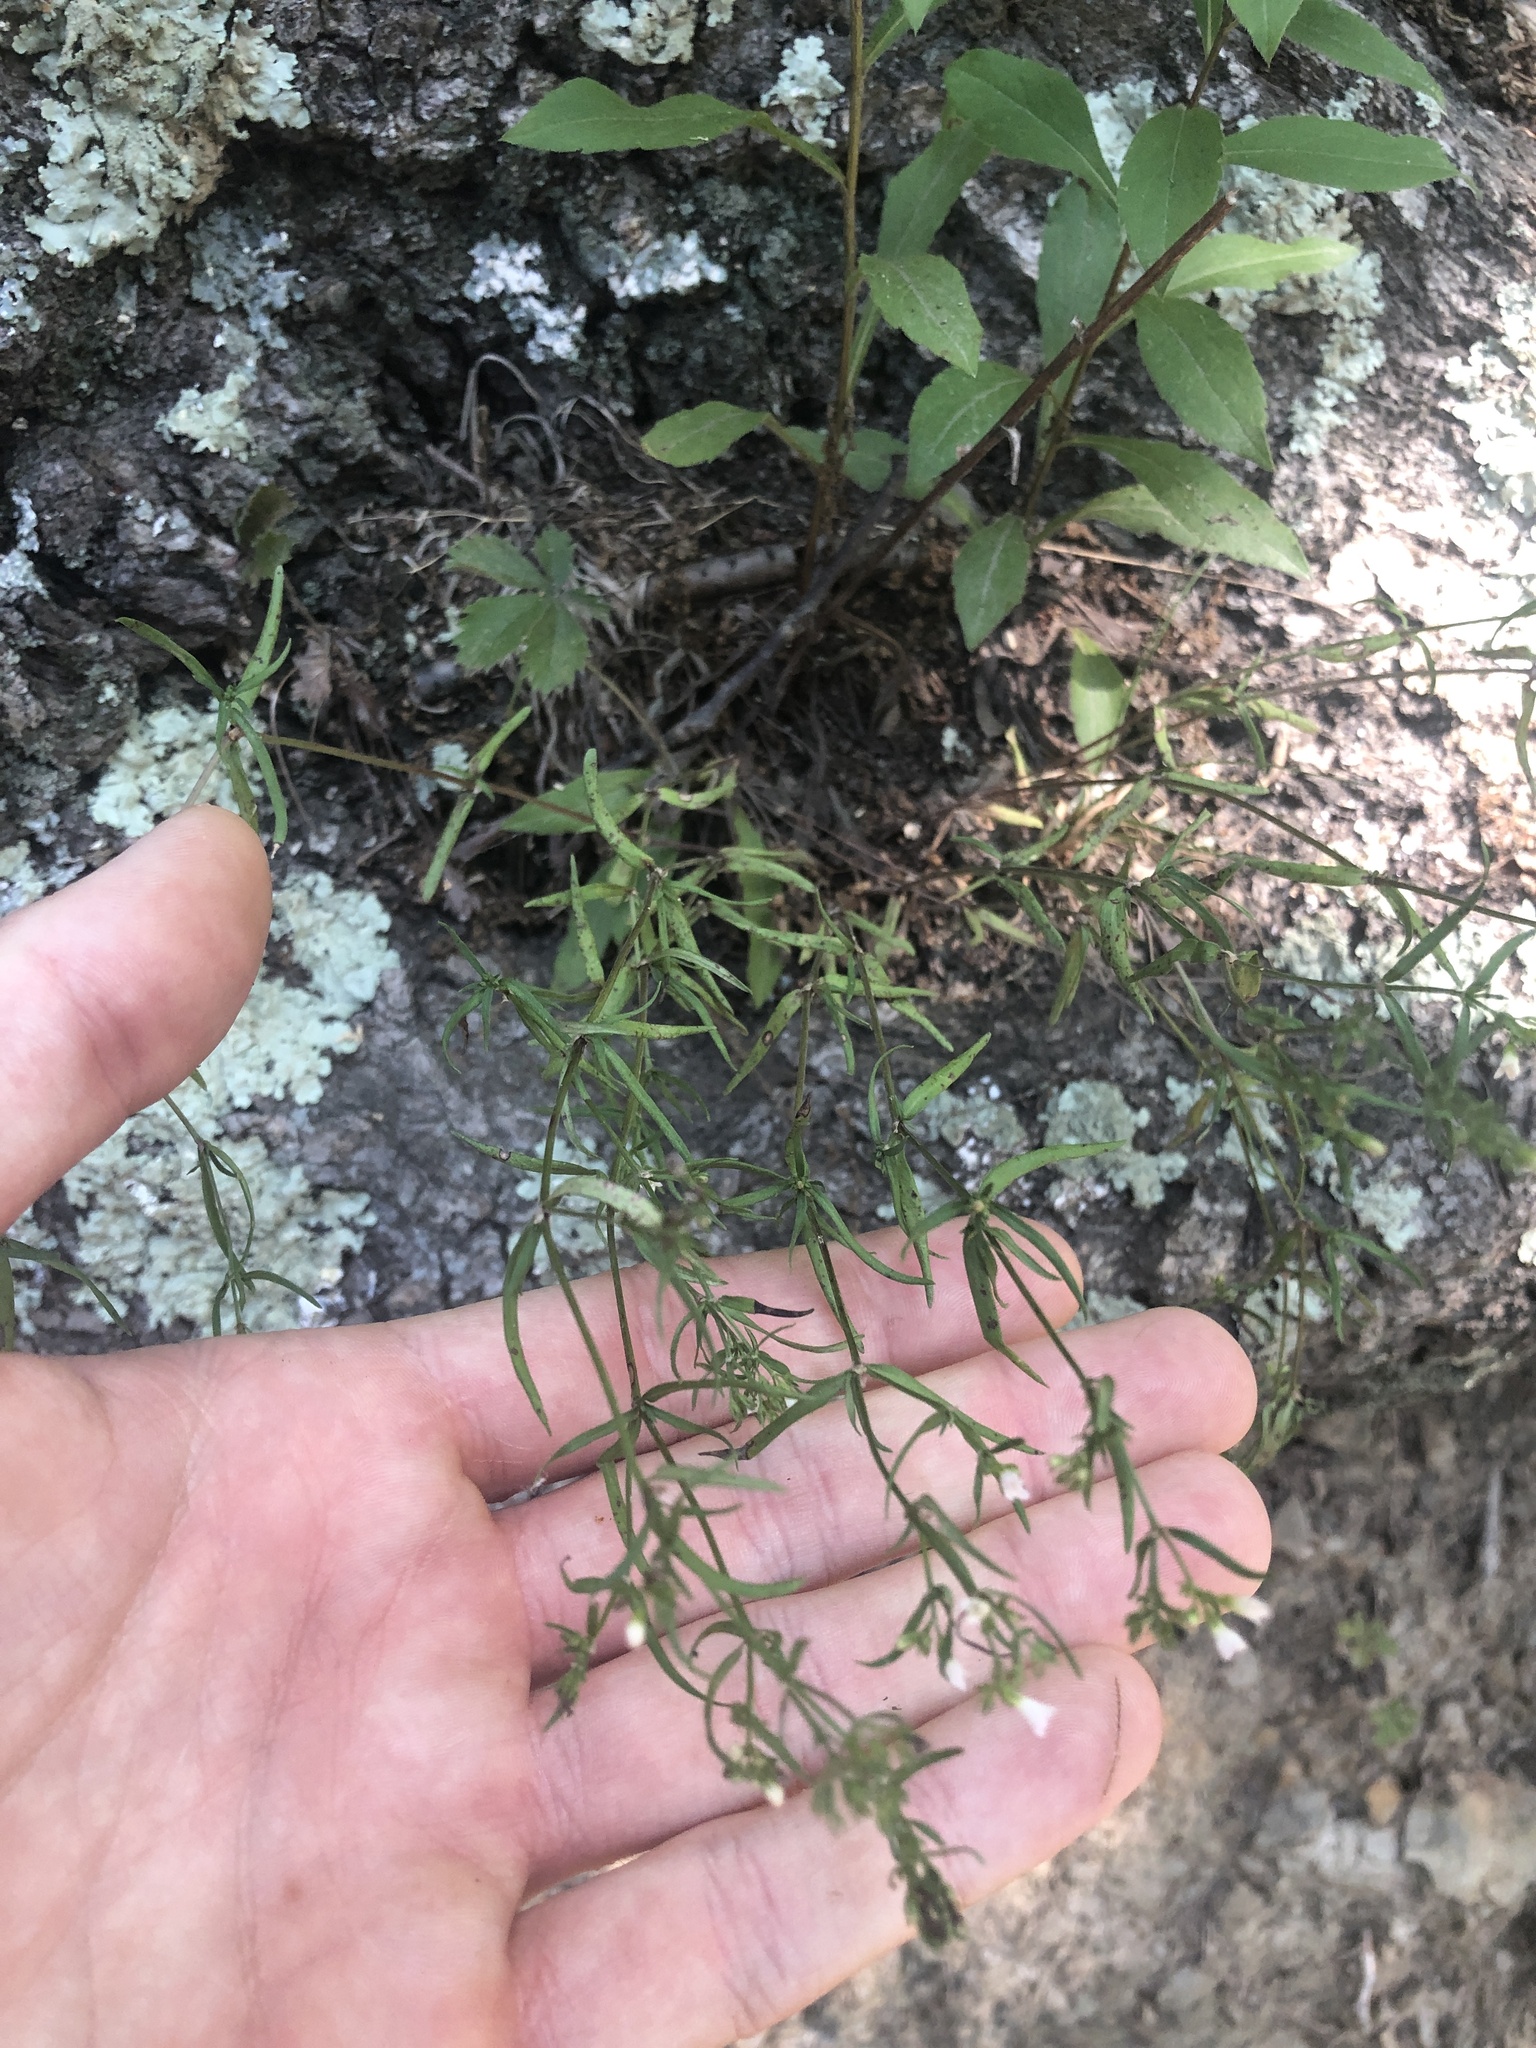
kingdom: Plantae
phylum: Tracheophyta
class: Magnoliopsida
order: Gentianales
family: Rubiaceae
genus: Houstonia
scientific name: Houstonia longifolia
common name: Long-leaved bluets
